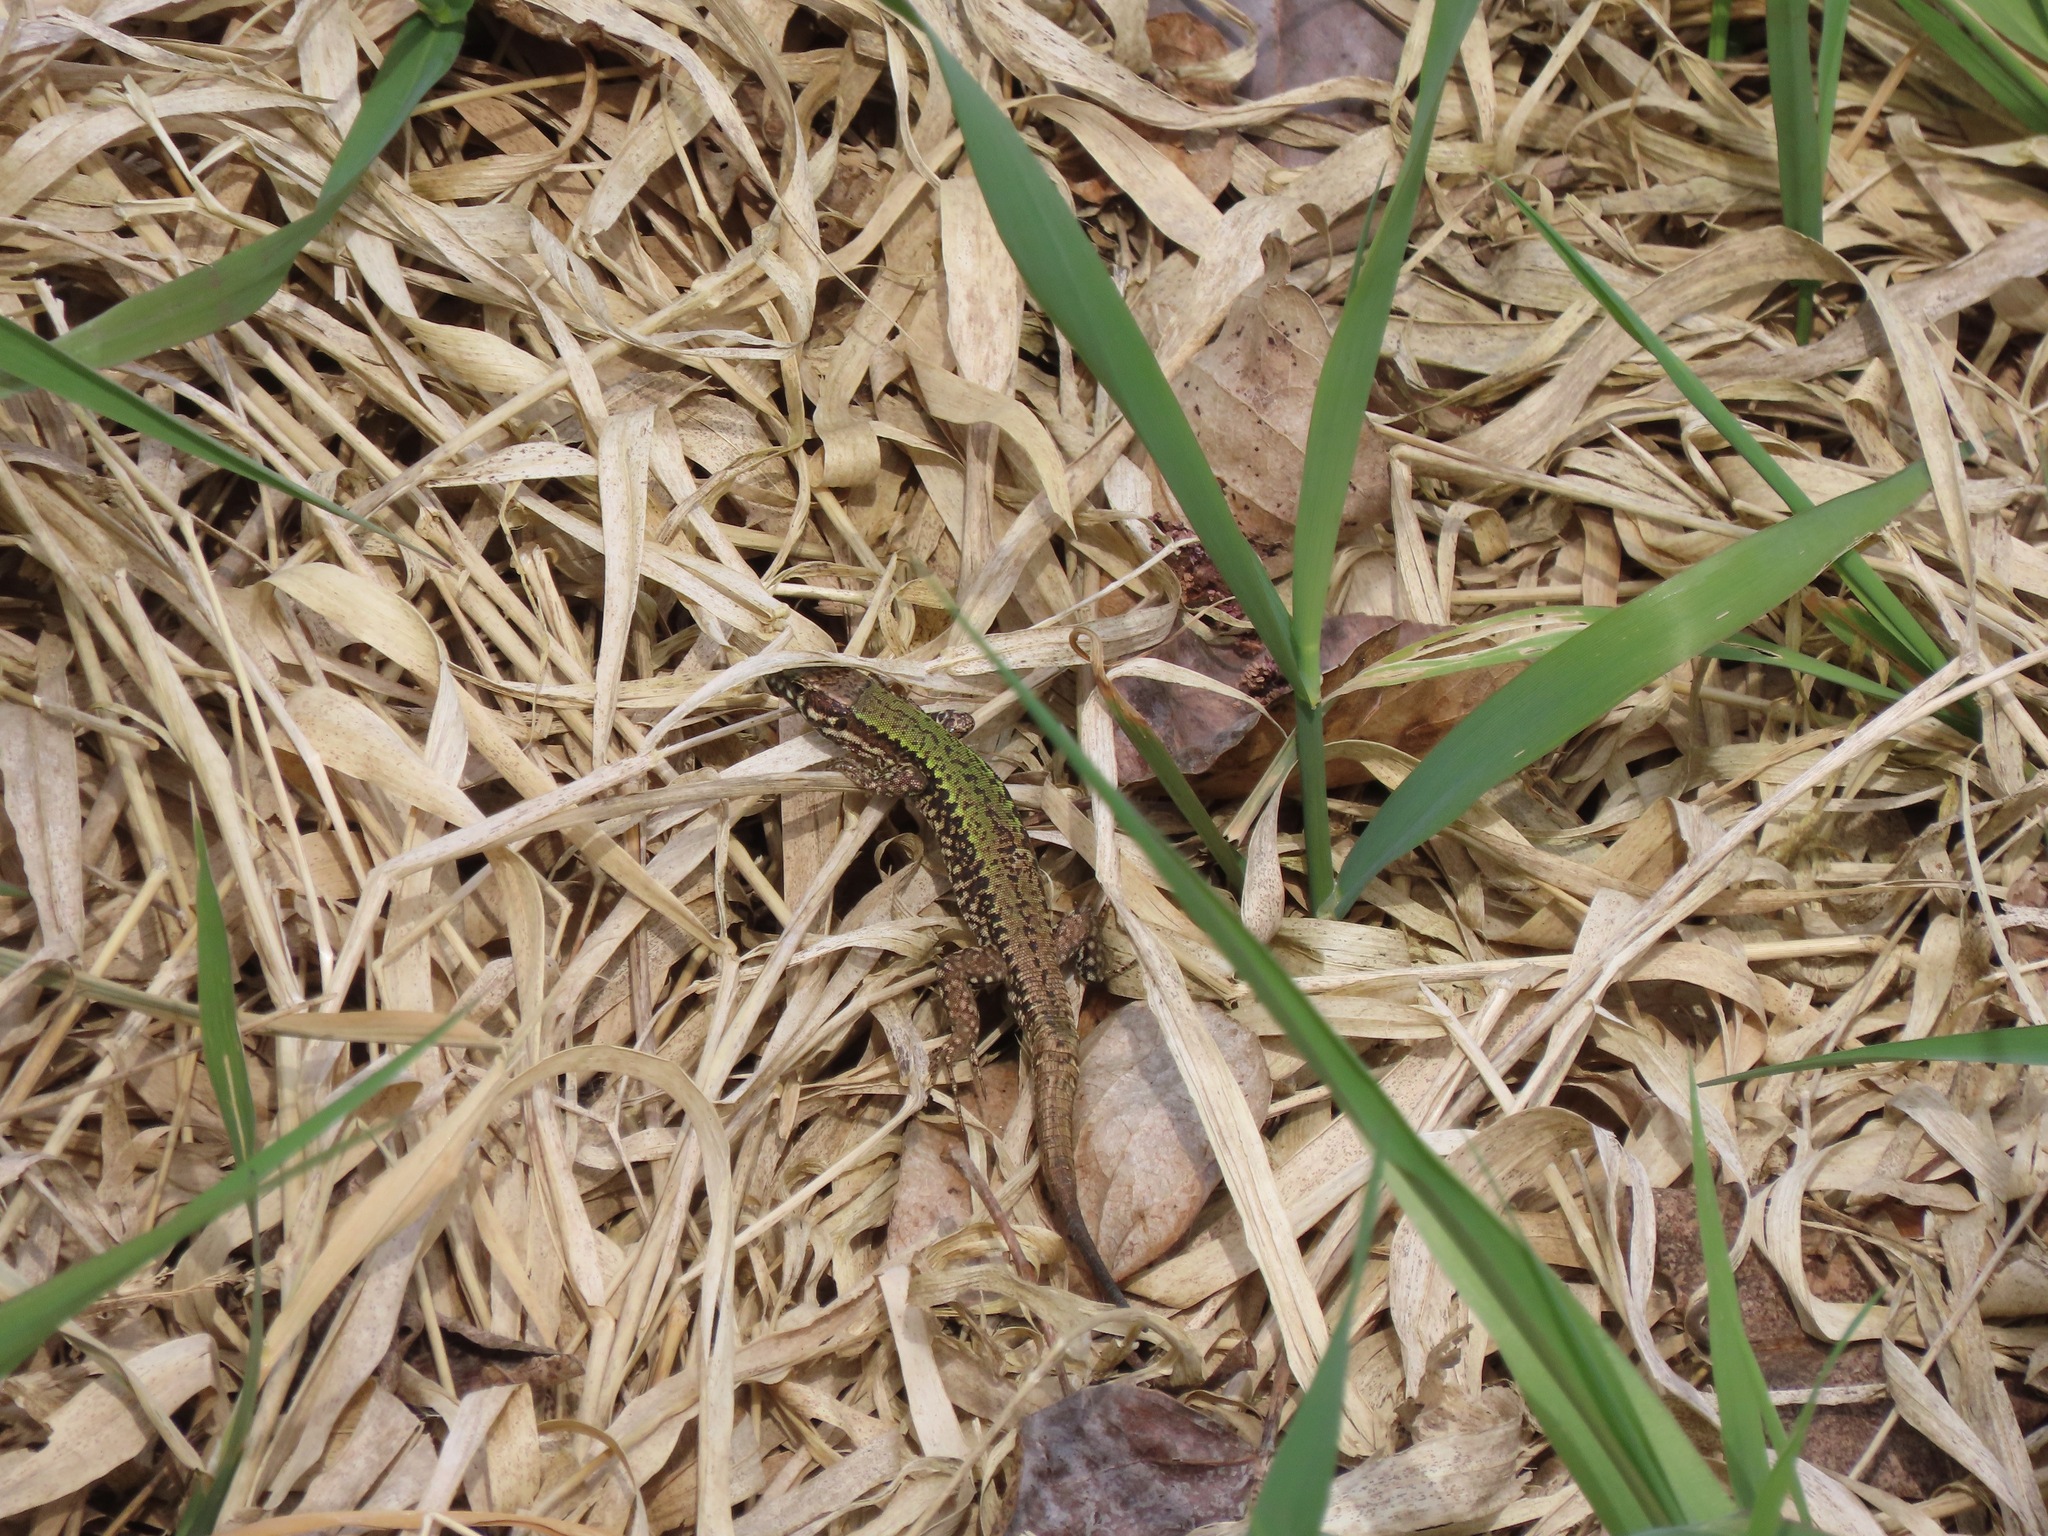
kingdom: Animalia
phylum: Chordata
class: Squamata
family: Lacertidae
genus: Podarcis
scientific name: Podarcis muralis
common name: Common wall lizard
